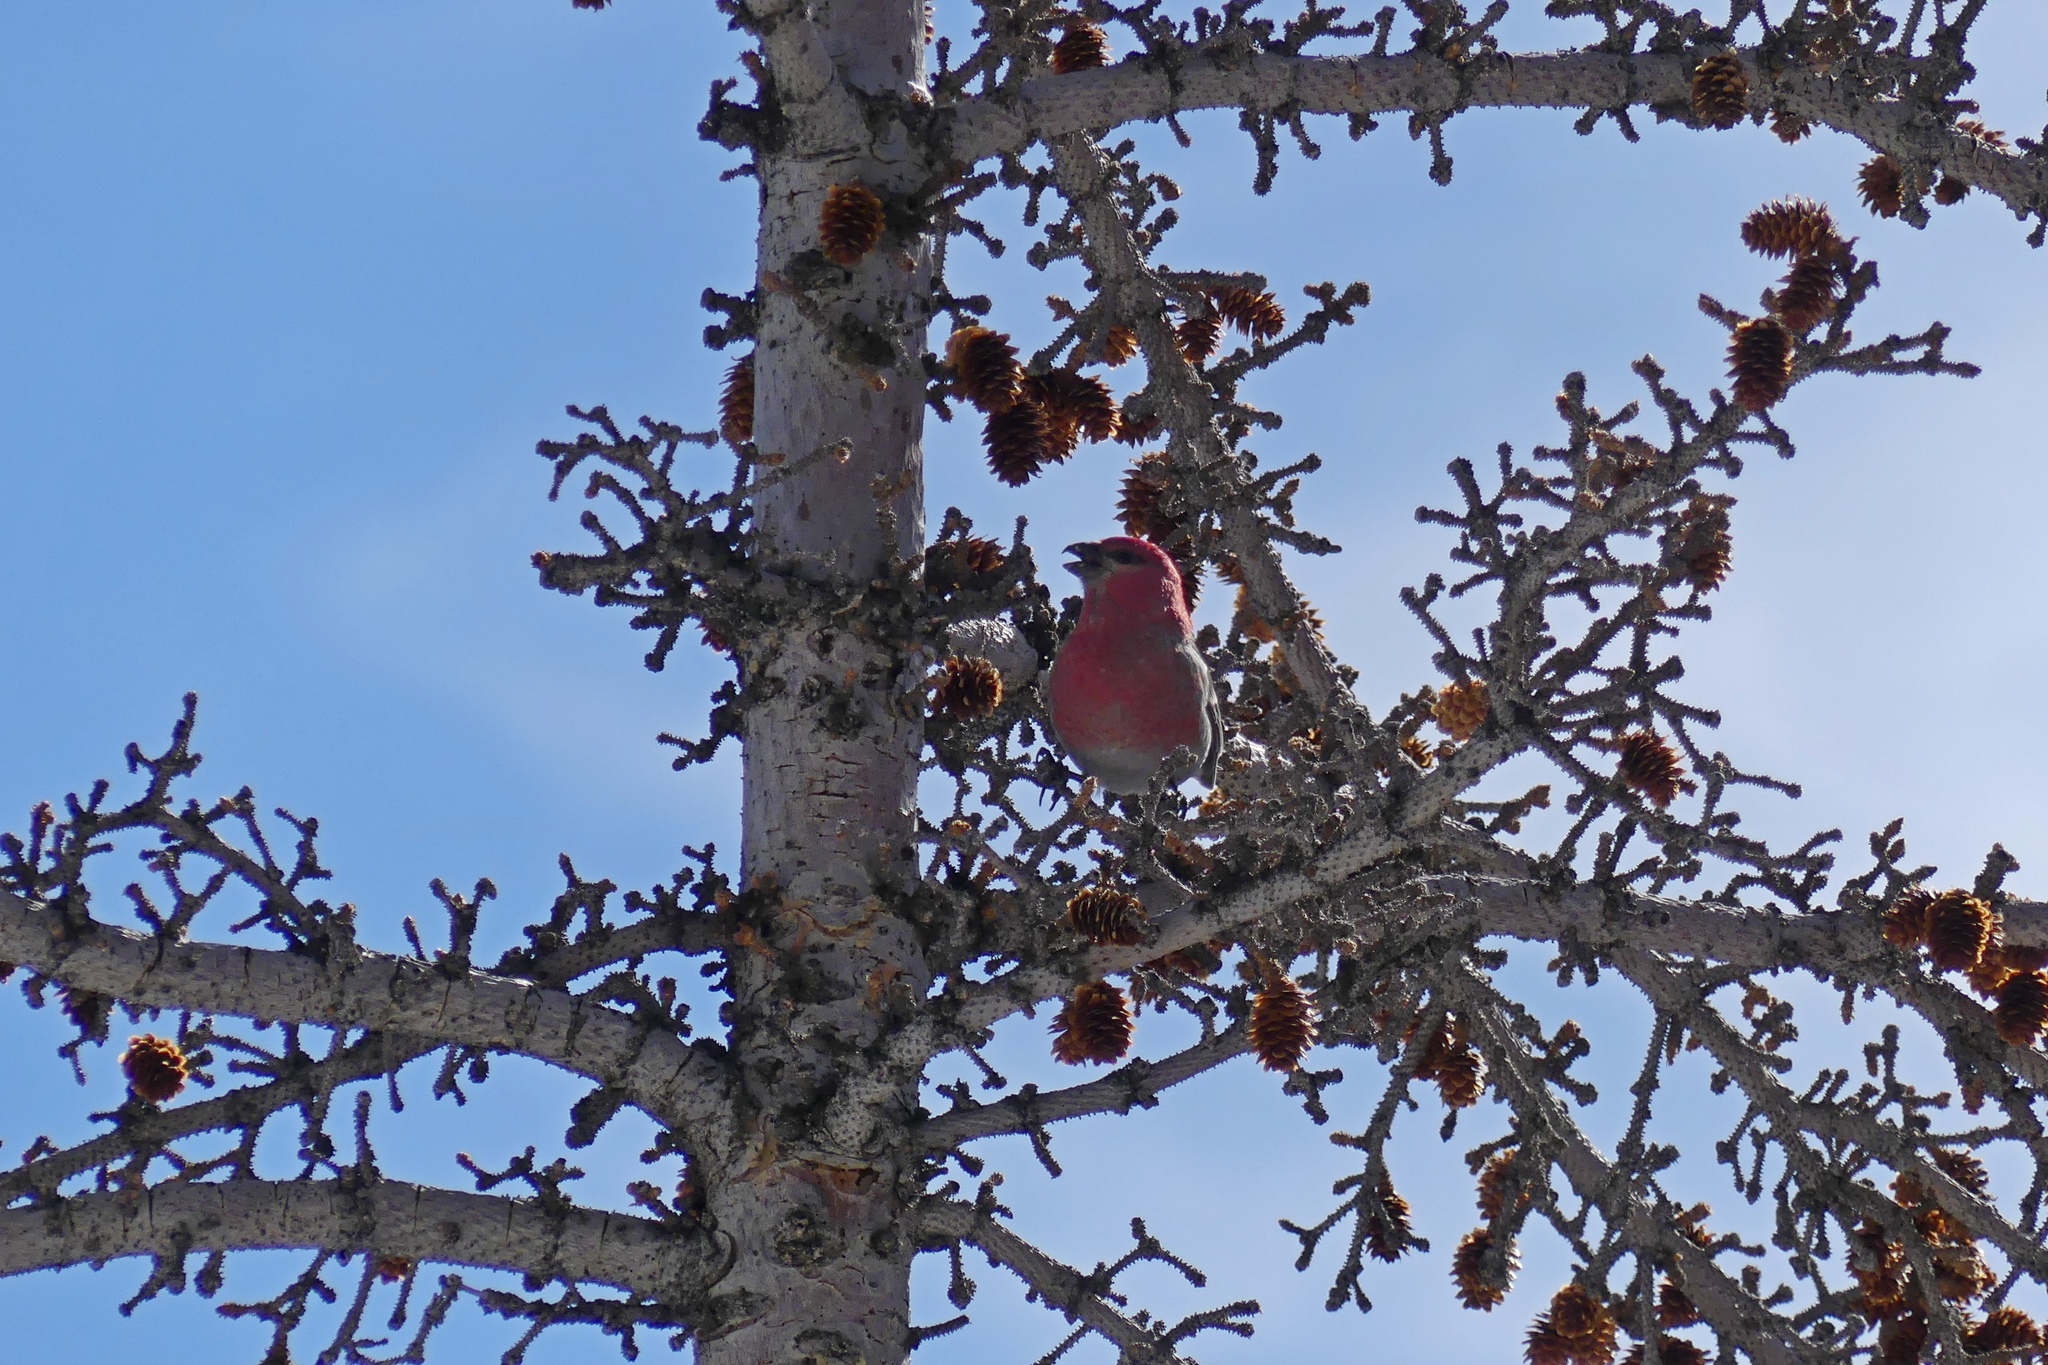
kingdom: Animalia
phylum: Chordata
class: Aves
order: Passeriformes
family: Fringillidae
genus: Pinicola
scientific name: Pinicola enucleator
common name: Pine grosbeak
